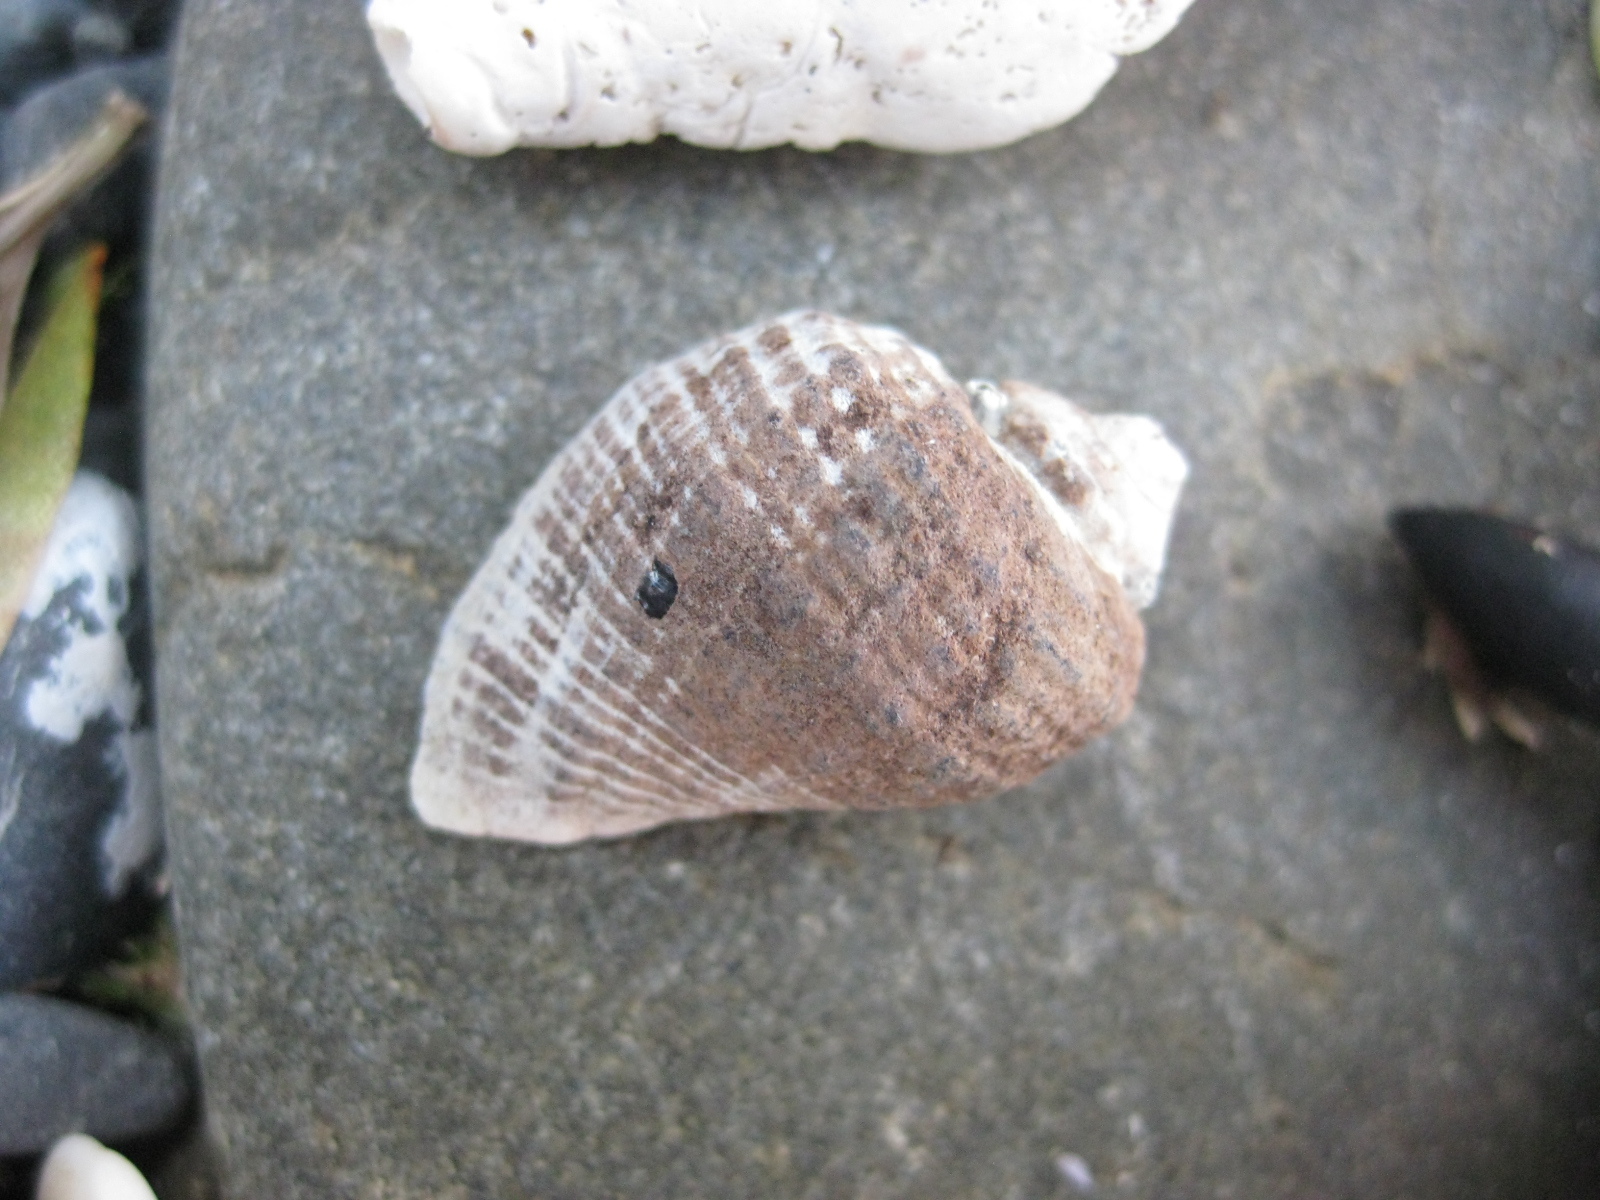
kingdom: Animalia
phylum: Mollusca
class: Gastropoda
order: Neogastropoda
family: Muricidae
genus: Haustrum
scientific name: Haustrum haustorium
